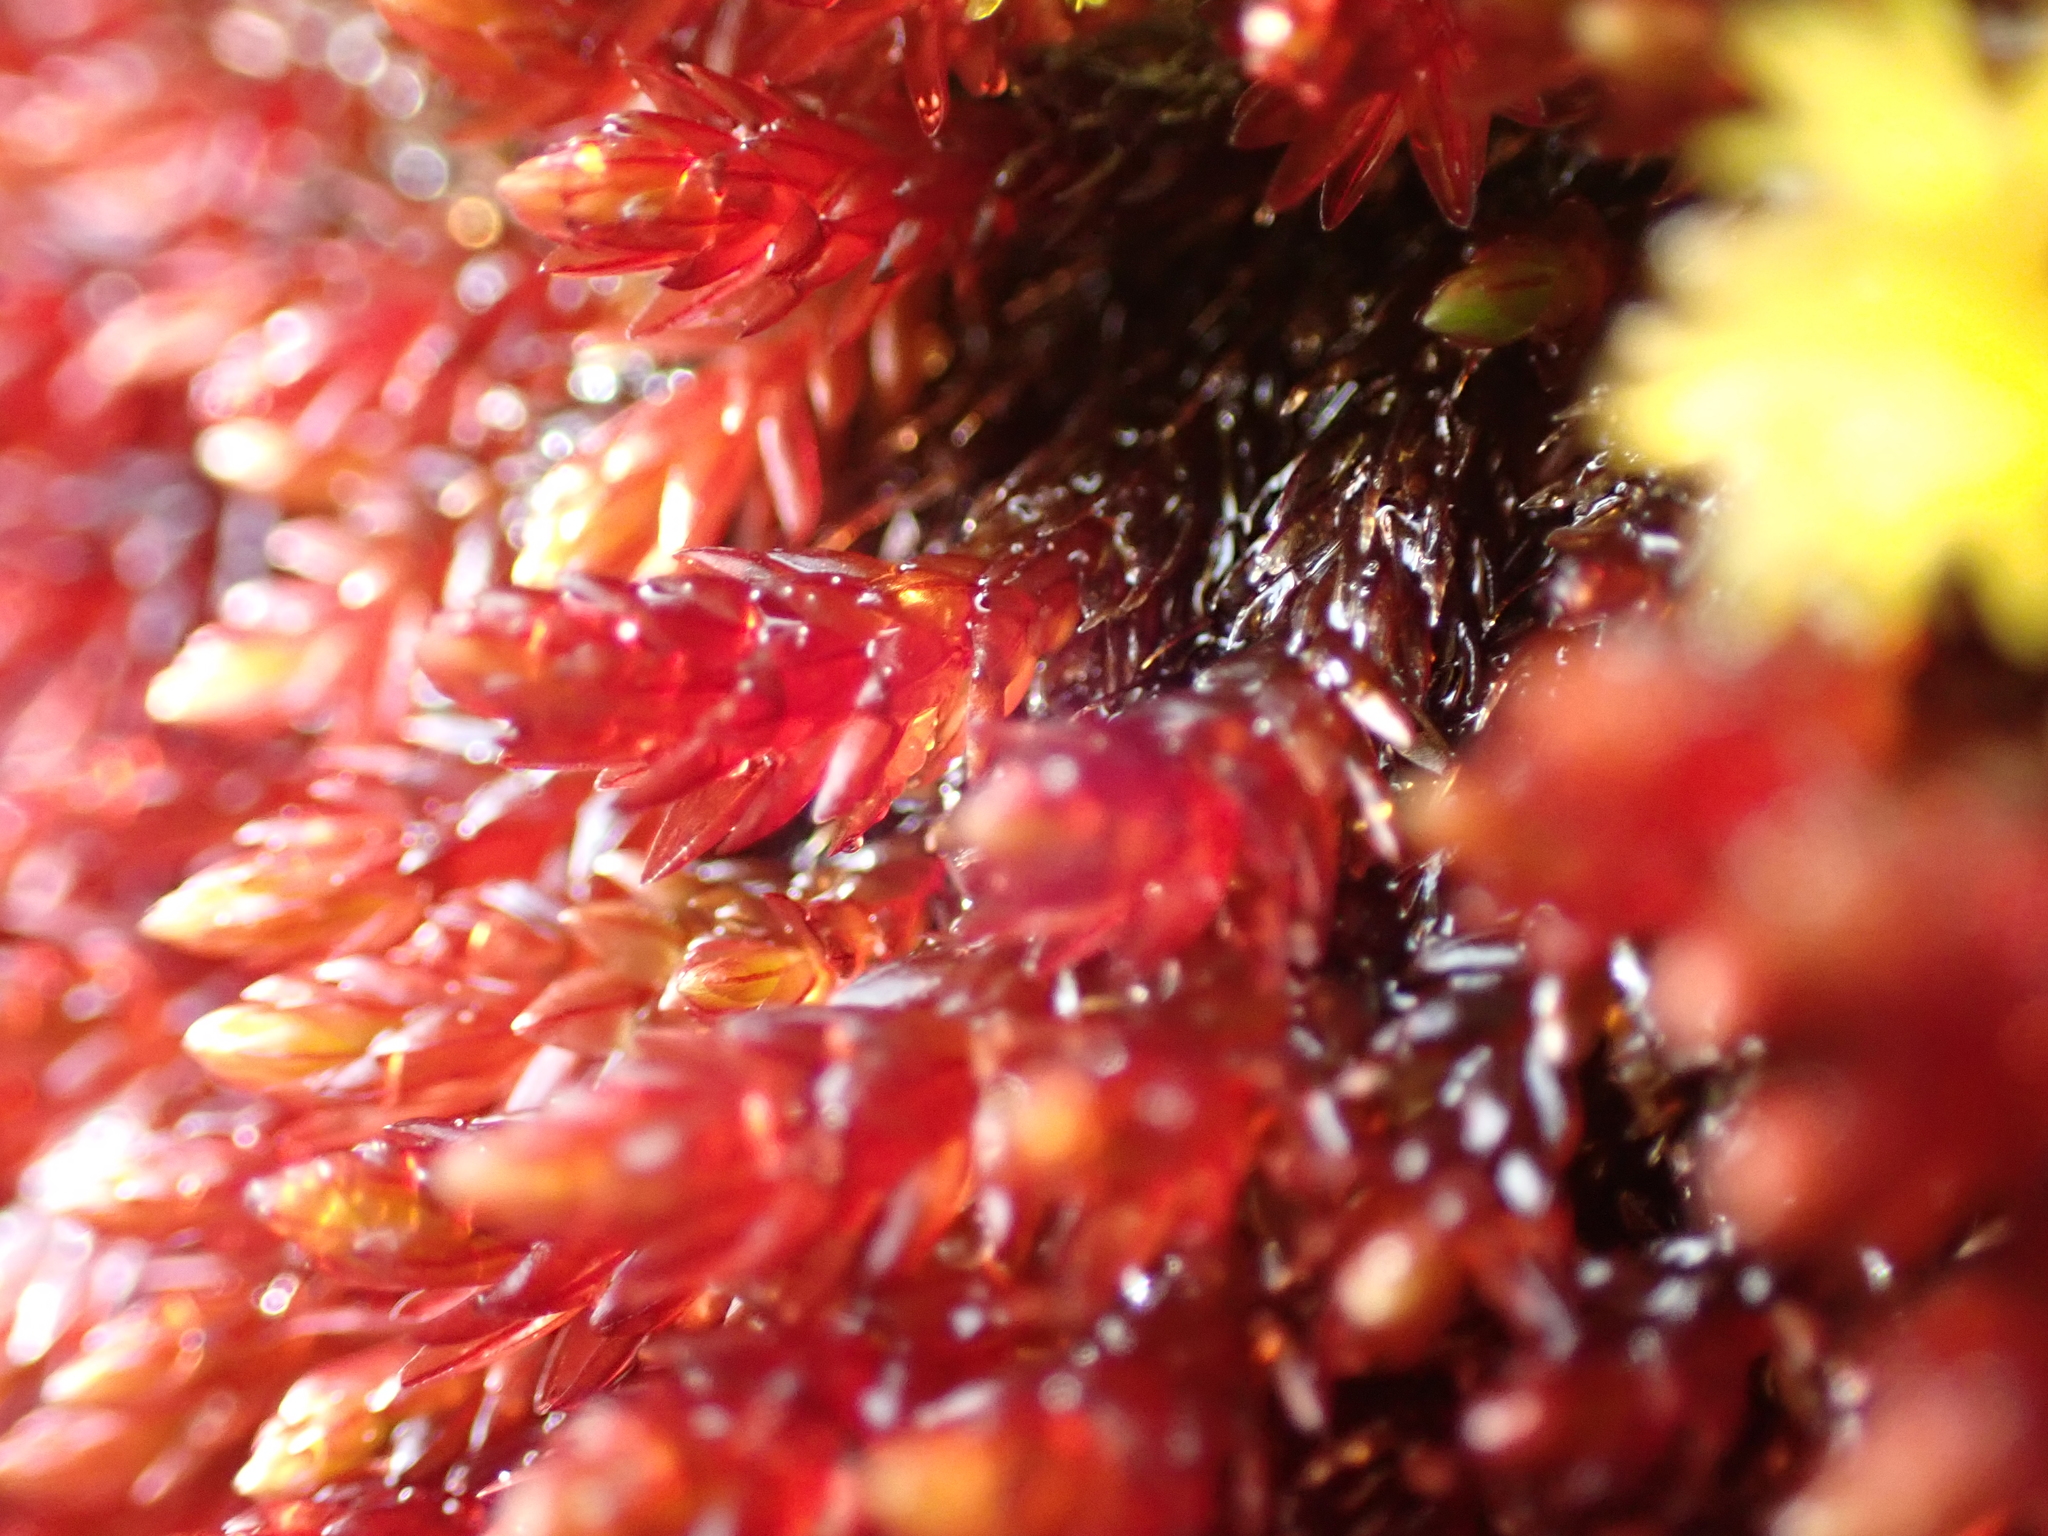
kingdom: Plantae
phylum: Bryophyta
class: Bryopsida
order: Bryales
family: Bryaceae
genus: Imbribryum
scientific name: Imbribryum miniatum
